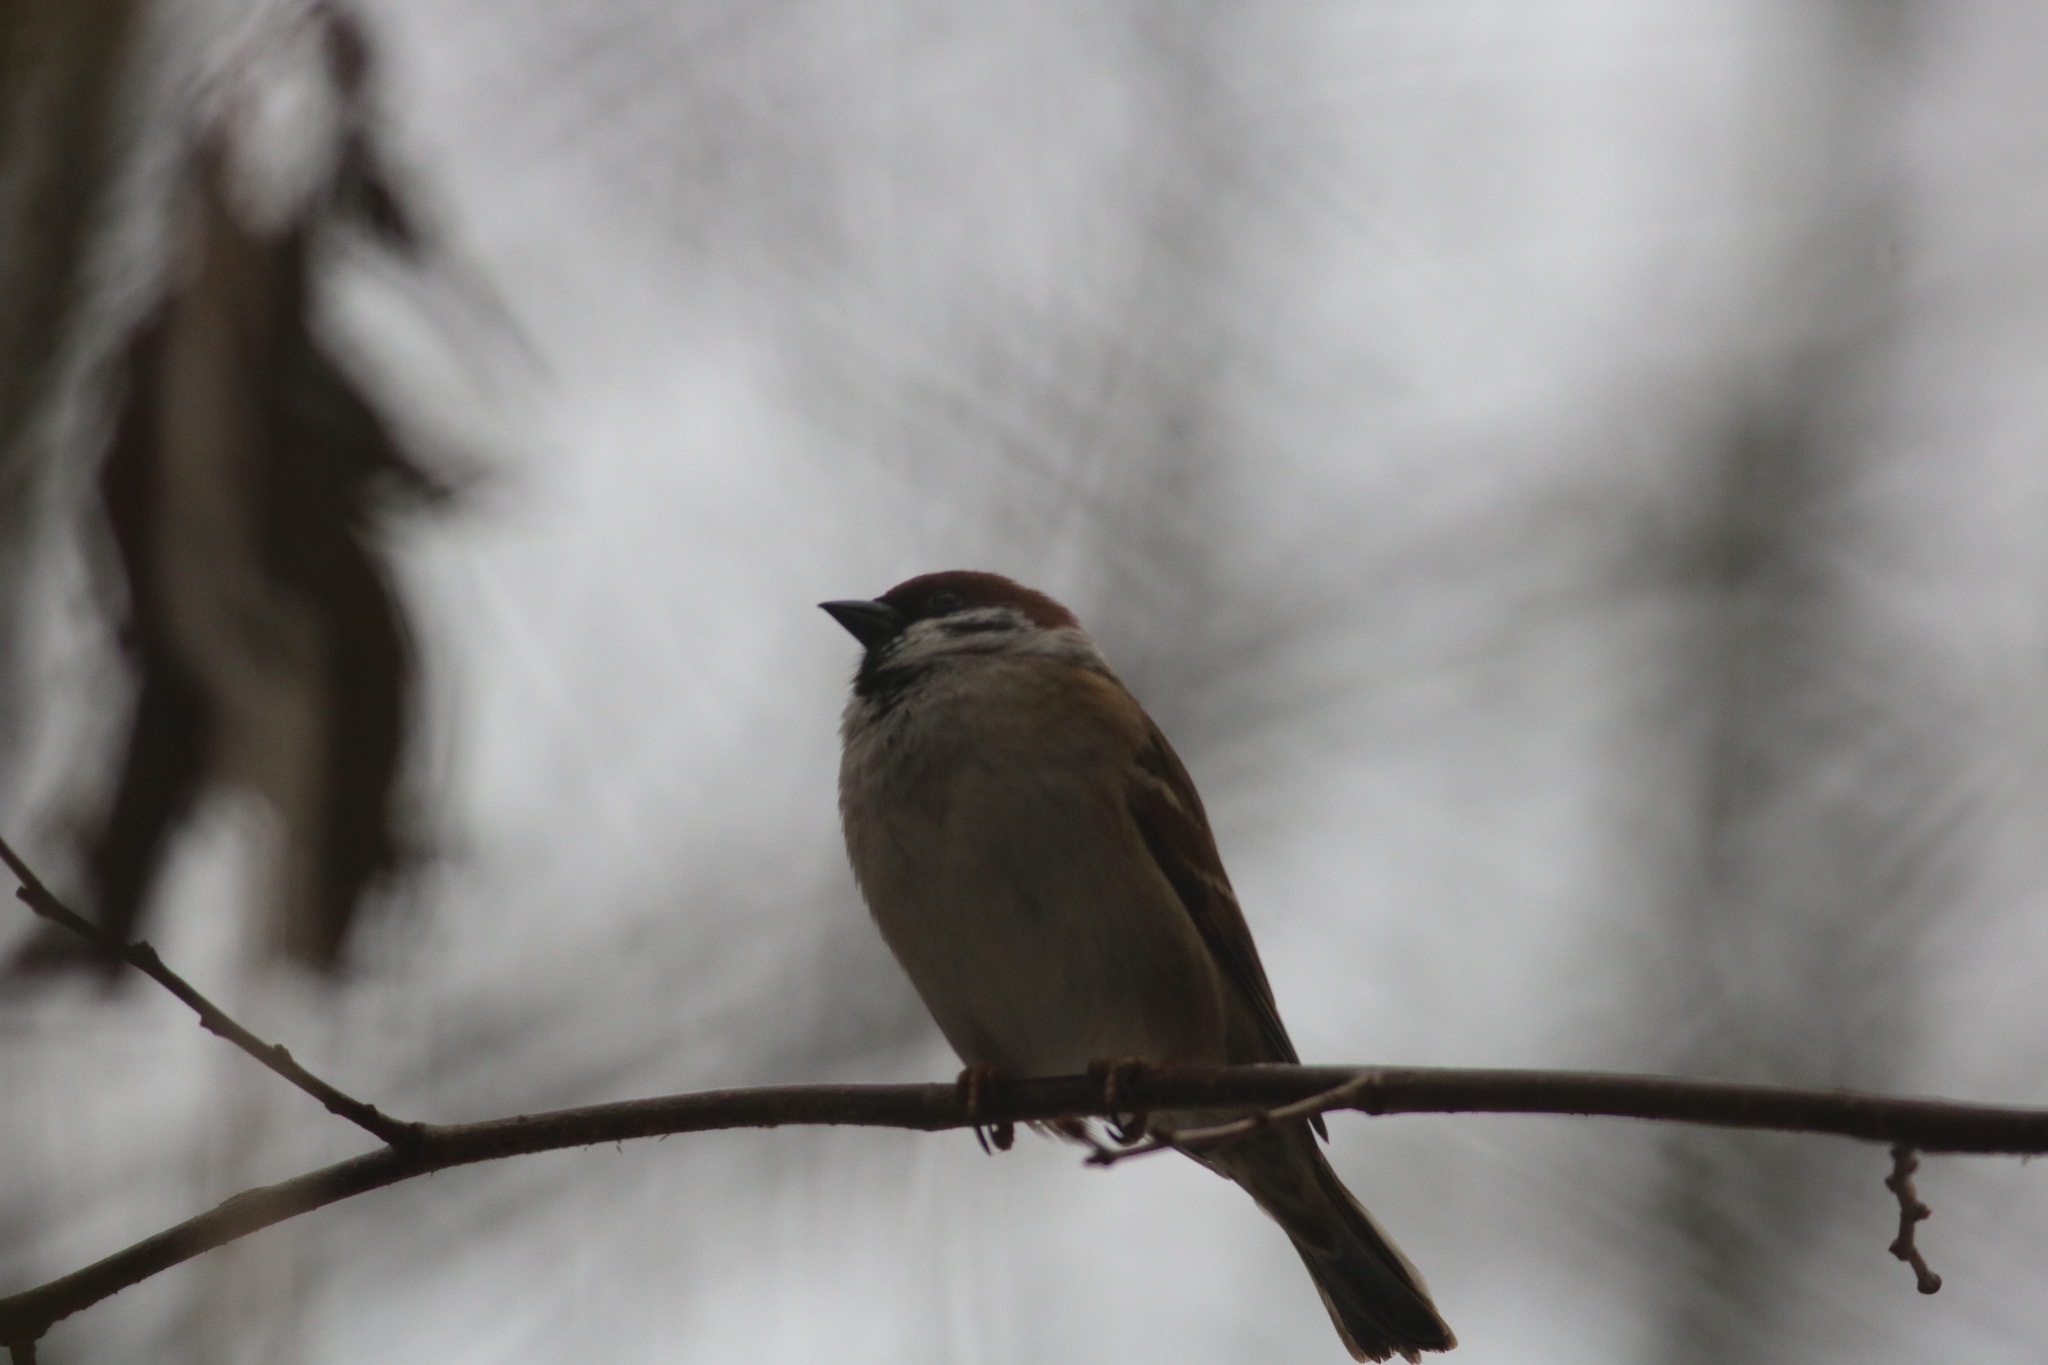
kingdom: Animalia
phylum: Chordata
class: Aves
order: Passeriformes
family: Passeridae
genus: Passer
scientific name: Passer montanus
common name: Eurasian tree sparrow
